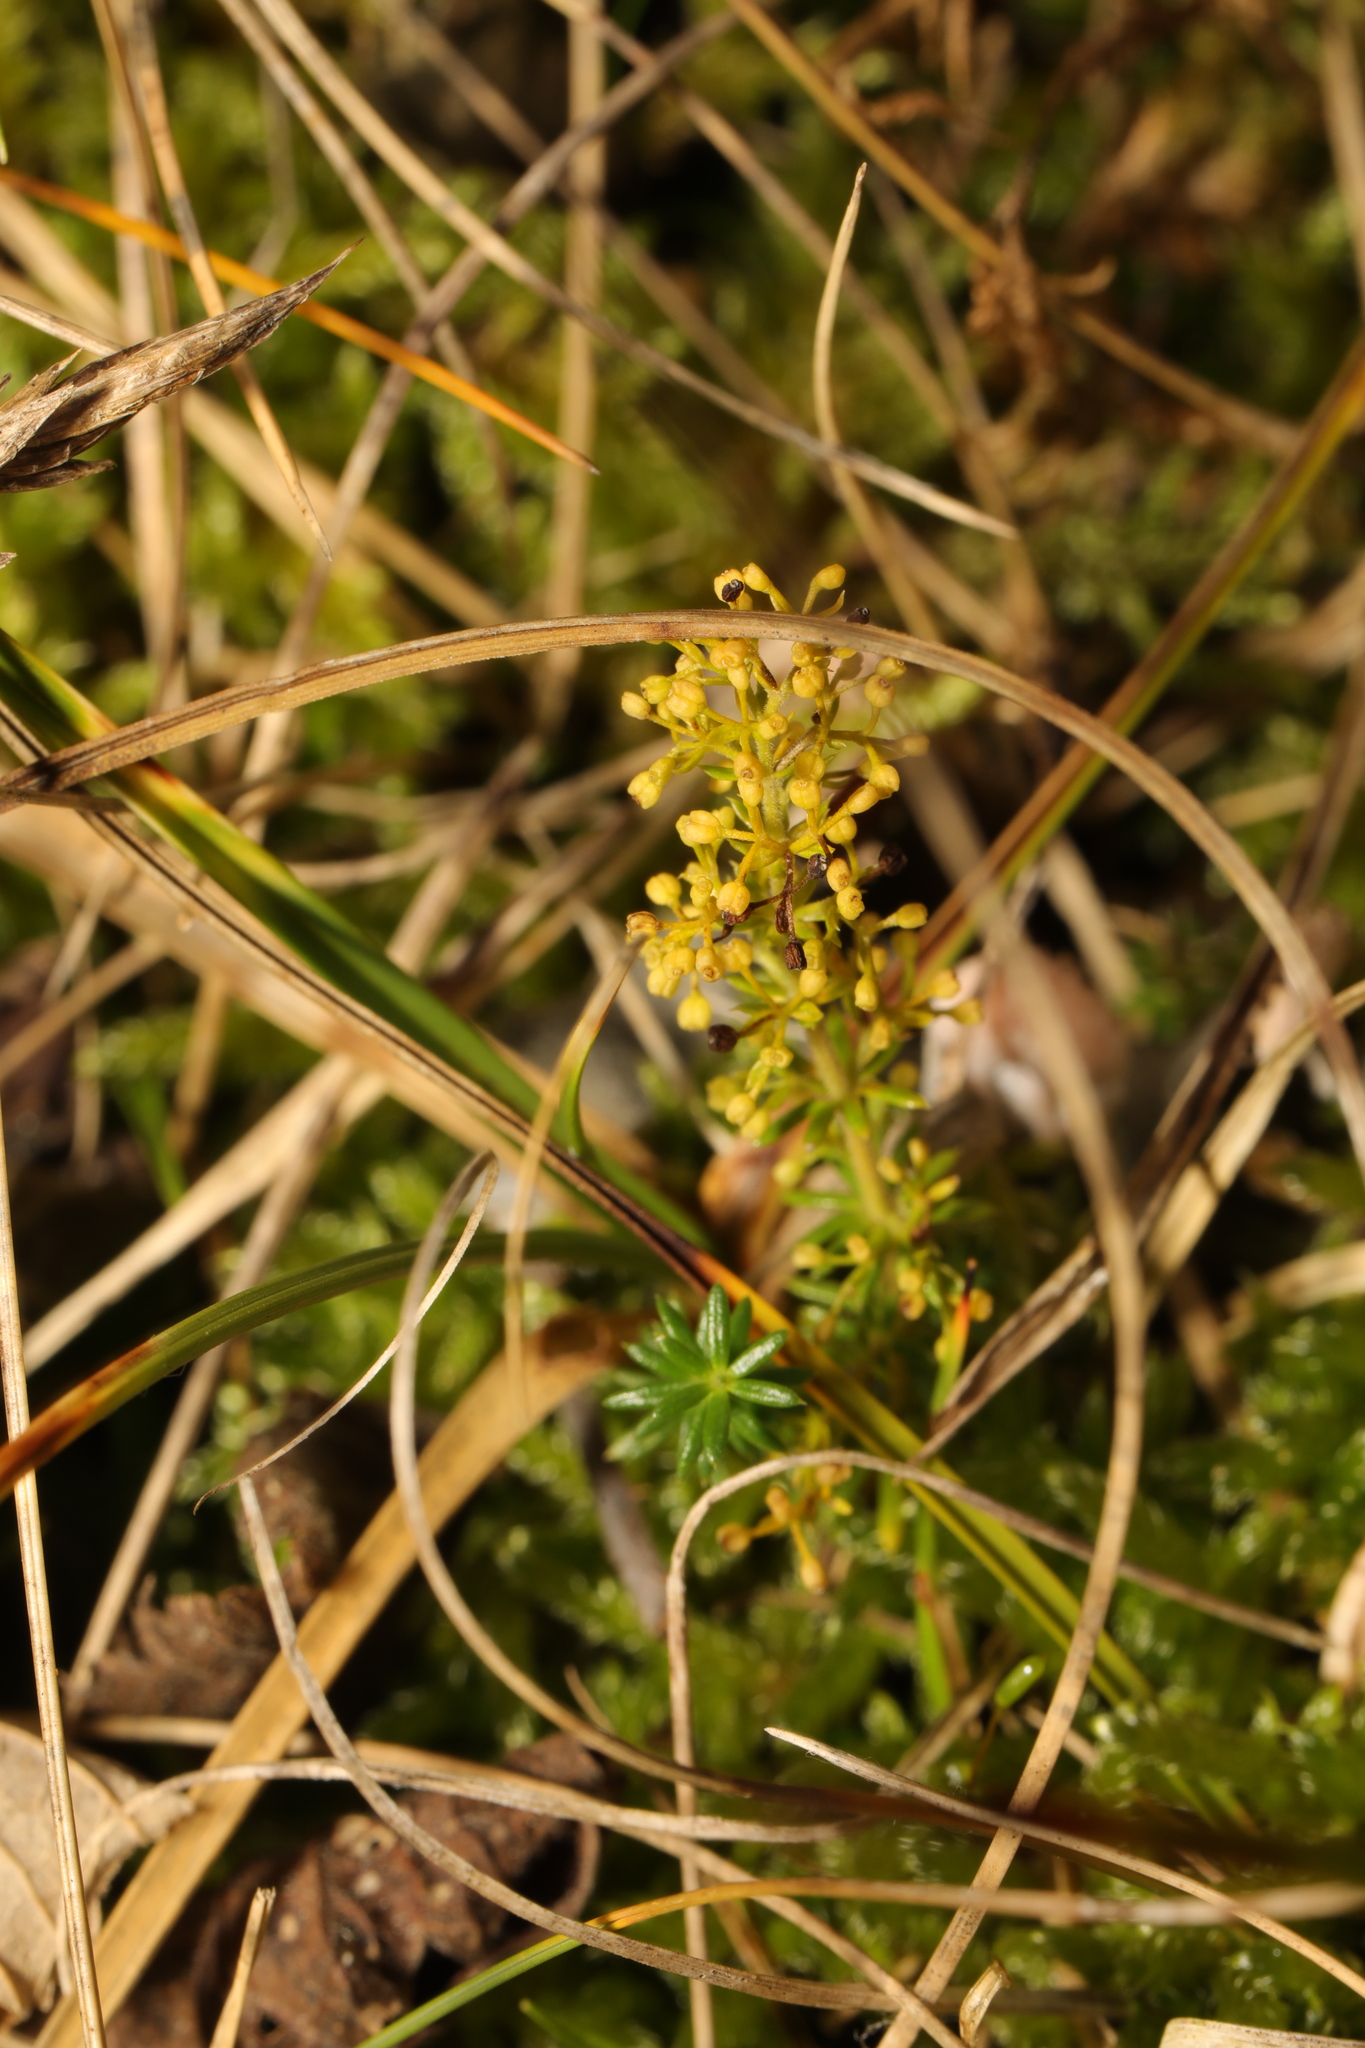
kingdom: Plantae
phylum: Tracheophyta
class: Magnoliopsida
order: Gentianales
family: Rubiaceae
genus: Galium
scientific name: Galium verum
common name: Lady's bedstraw
